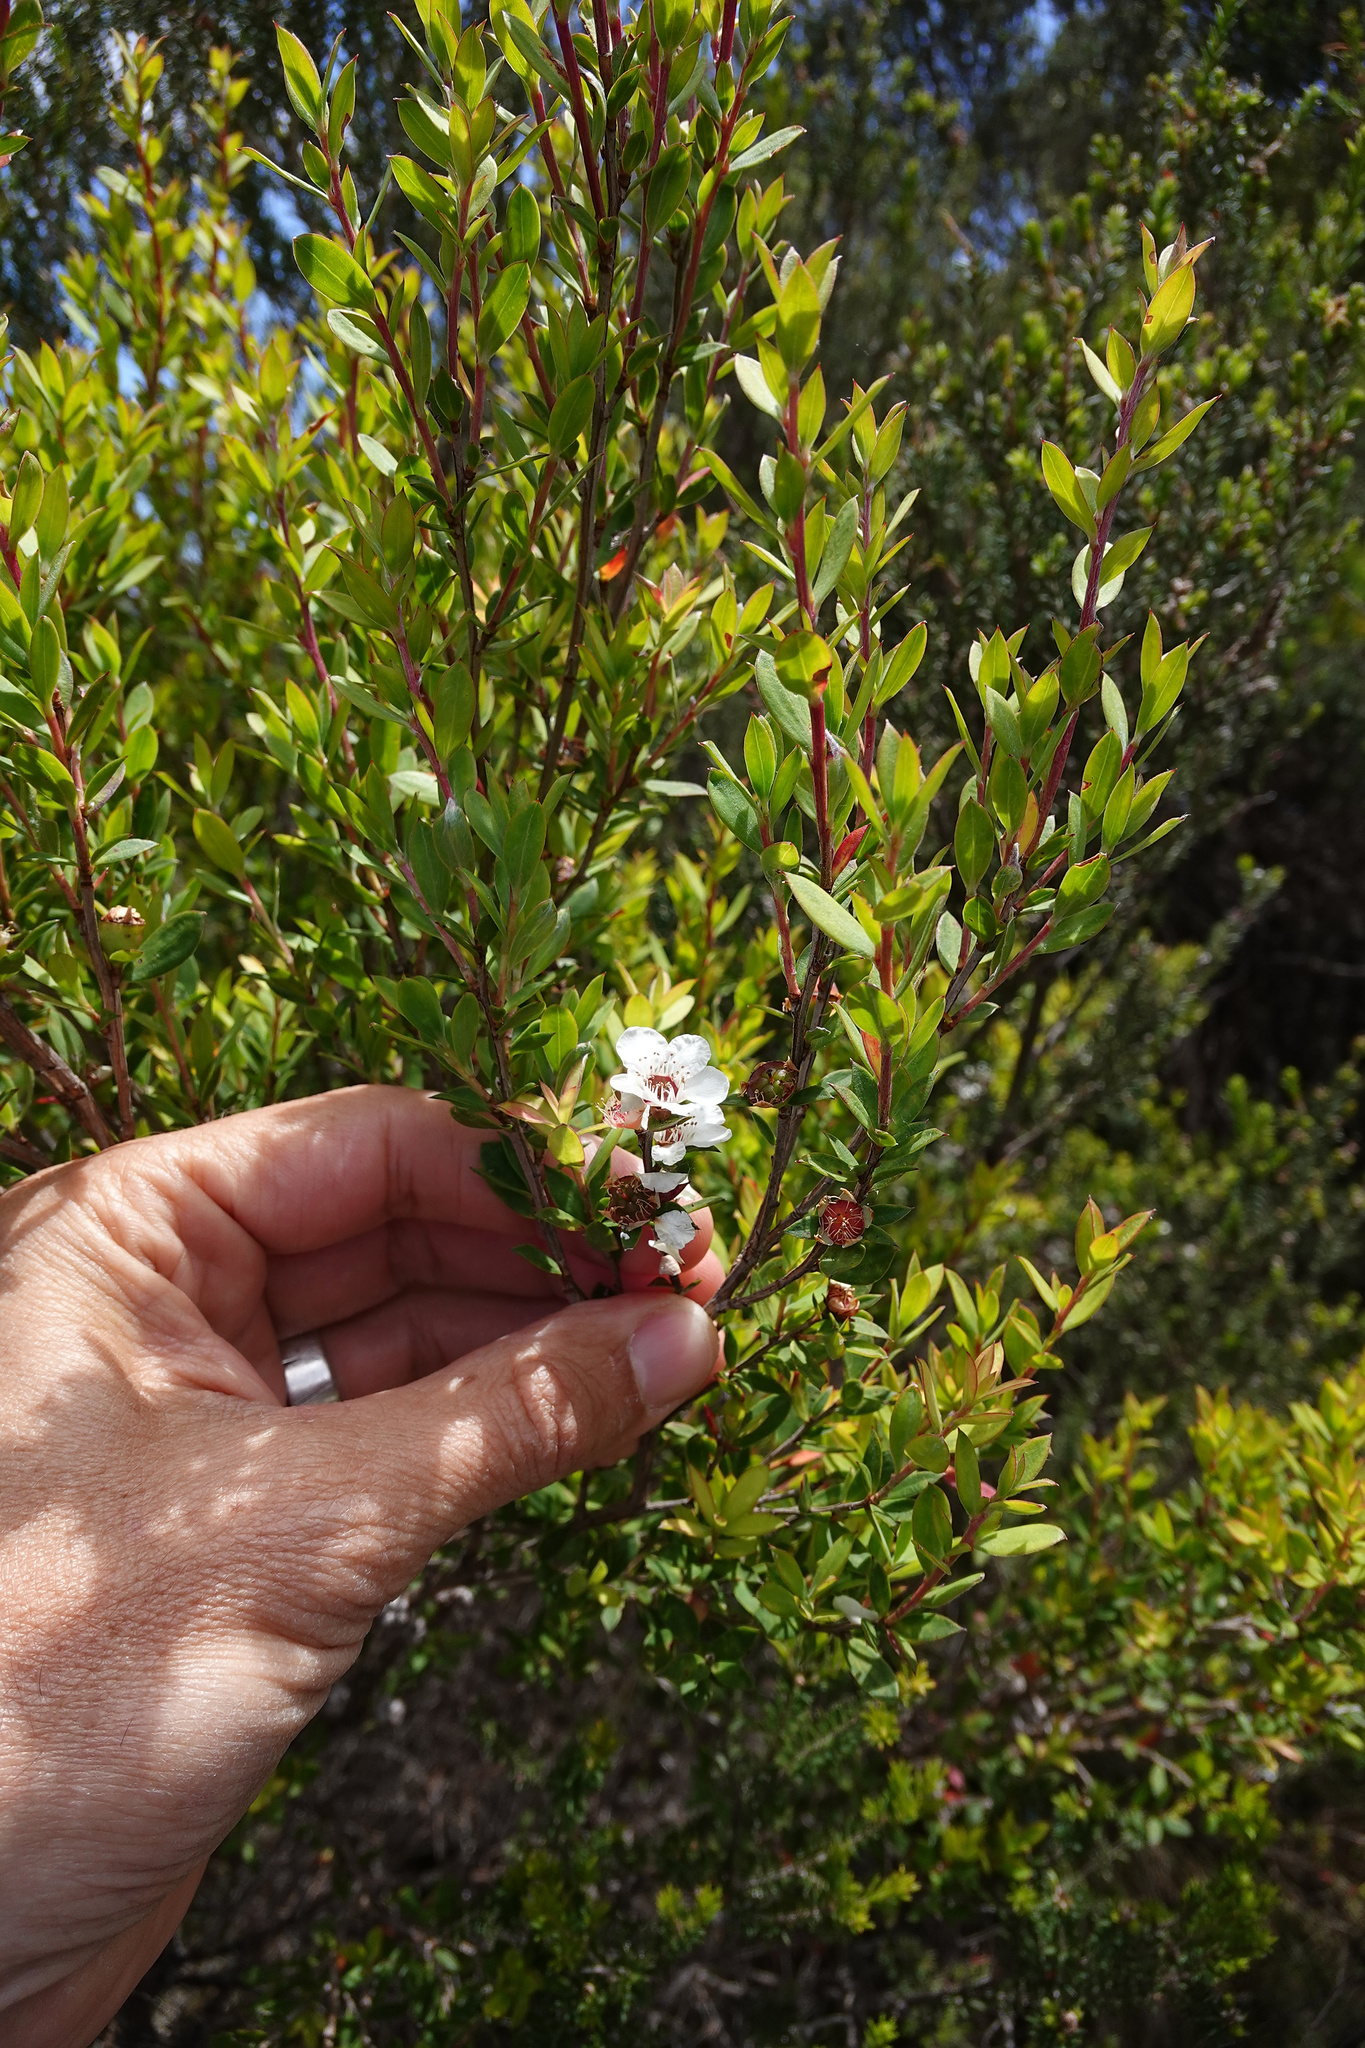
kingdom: Plantae
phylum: Tracheophyta
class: Magnoliopsida
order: Myrtales
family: Myrtaceae
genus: Leptospermum
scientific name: Leptospermum riparium
